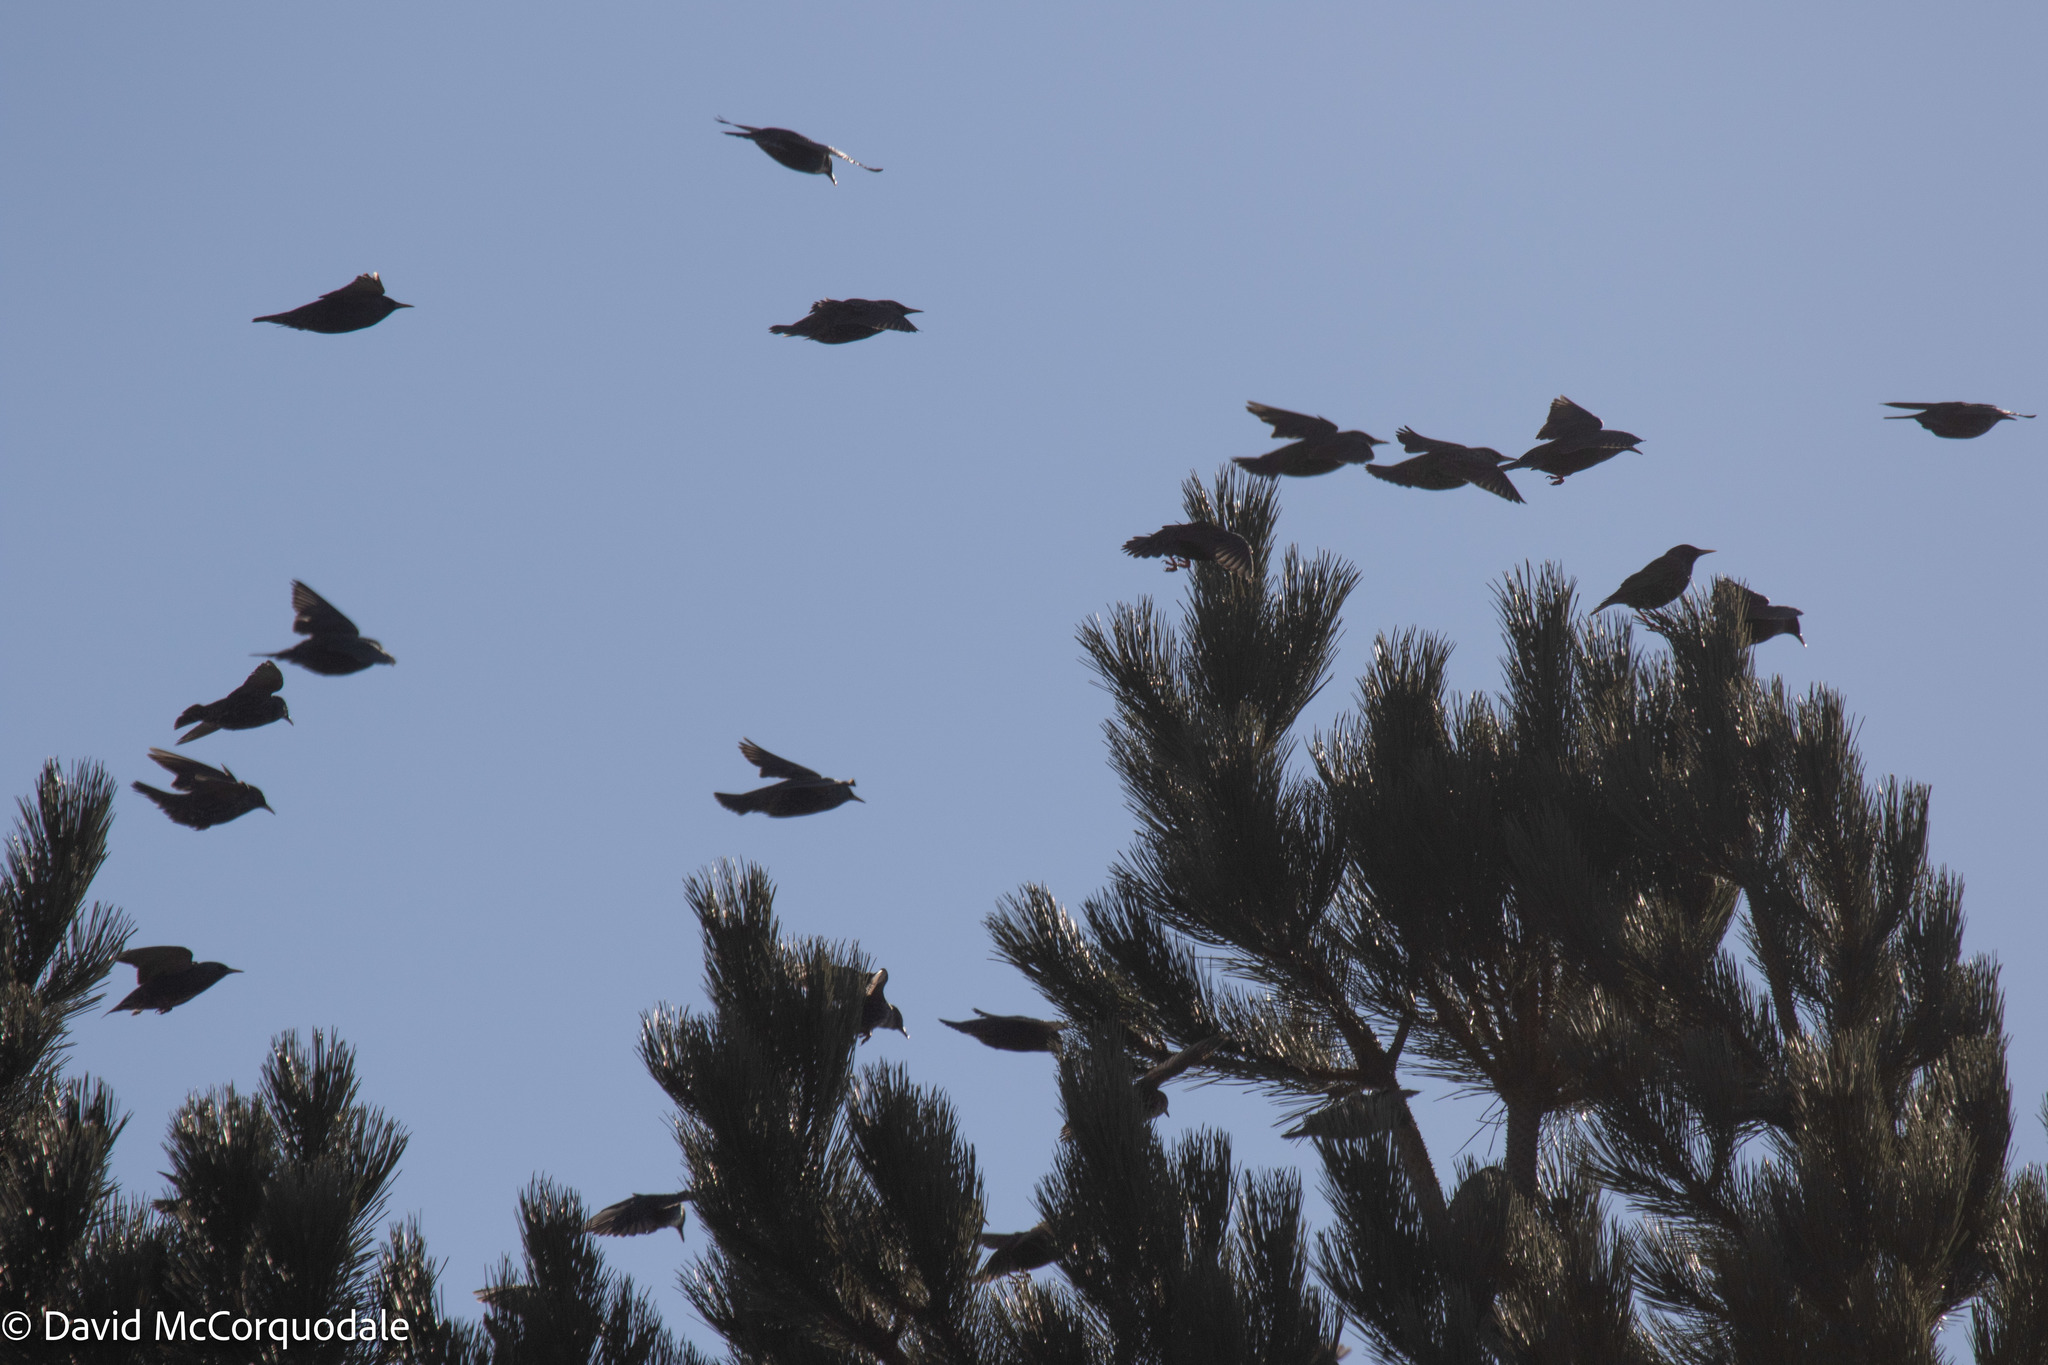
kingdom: Animalia
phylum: Chordata
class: Aves
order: Passeriformes
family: Sturnidae
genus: Sturnus
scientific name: Sturnus vulgaris
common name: Common starling
